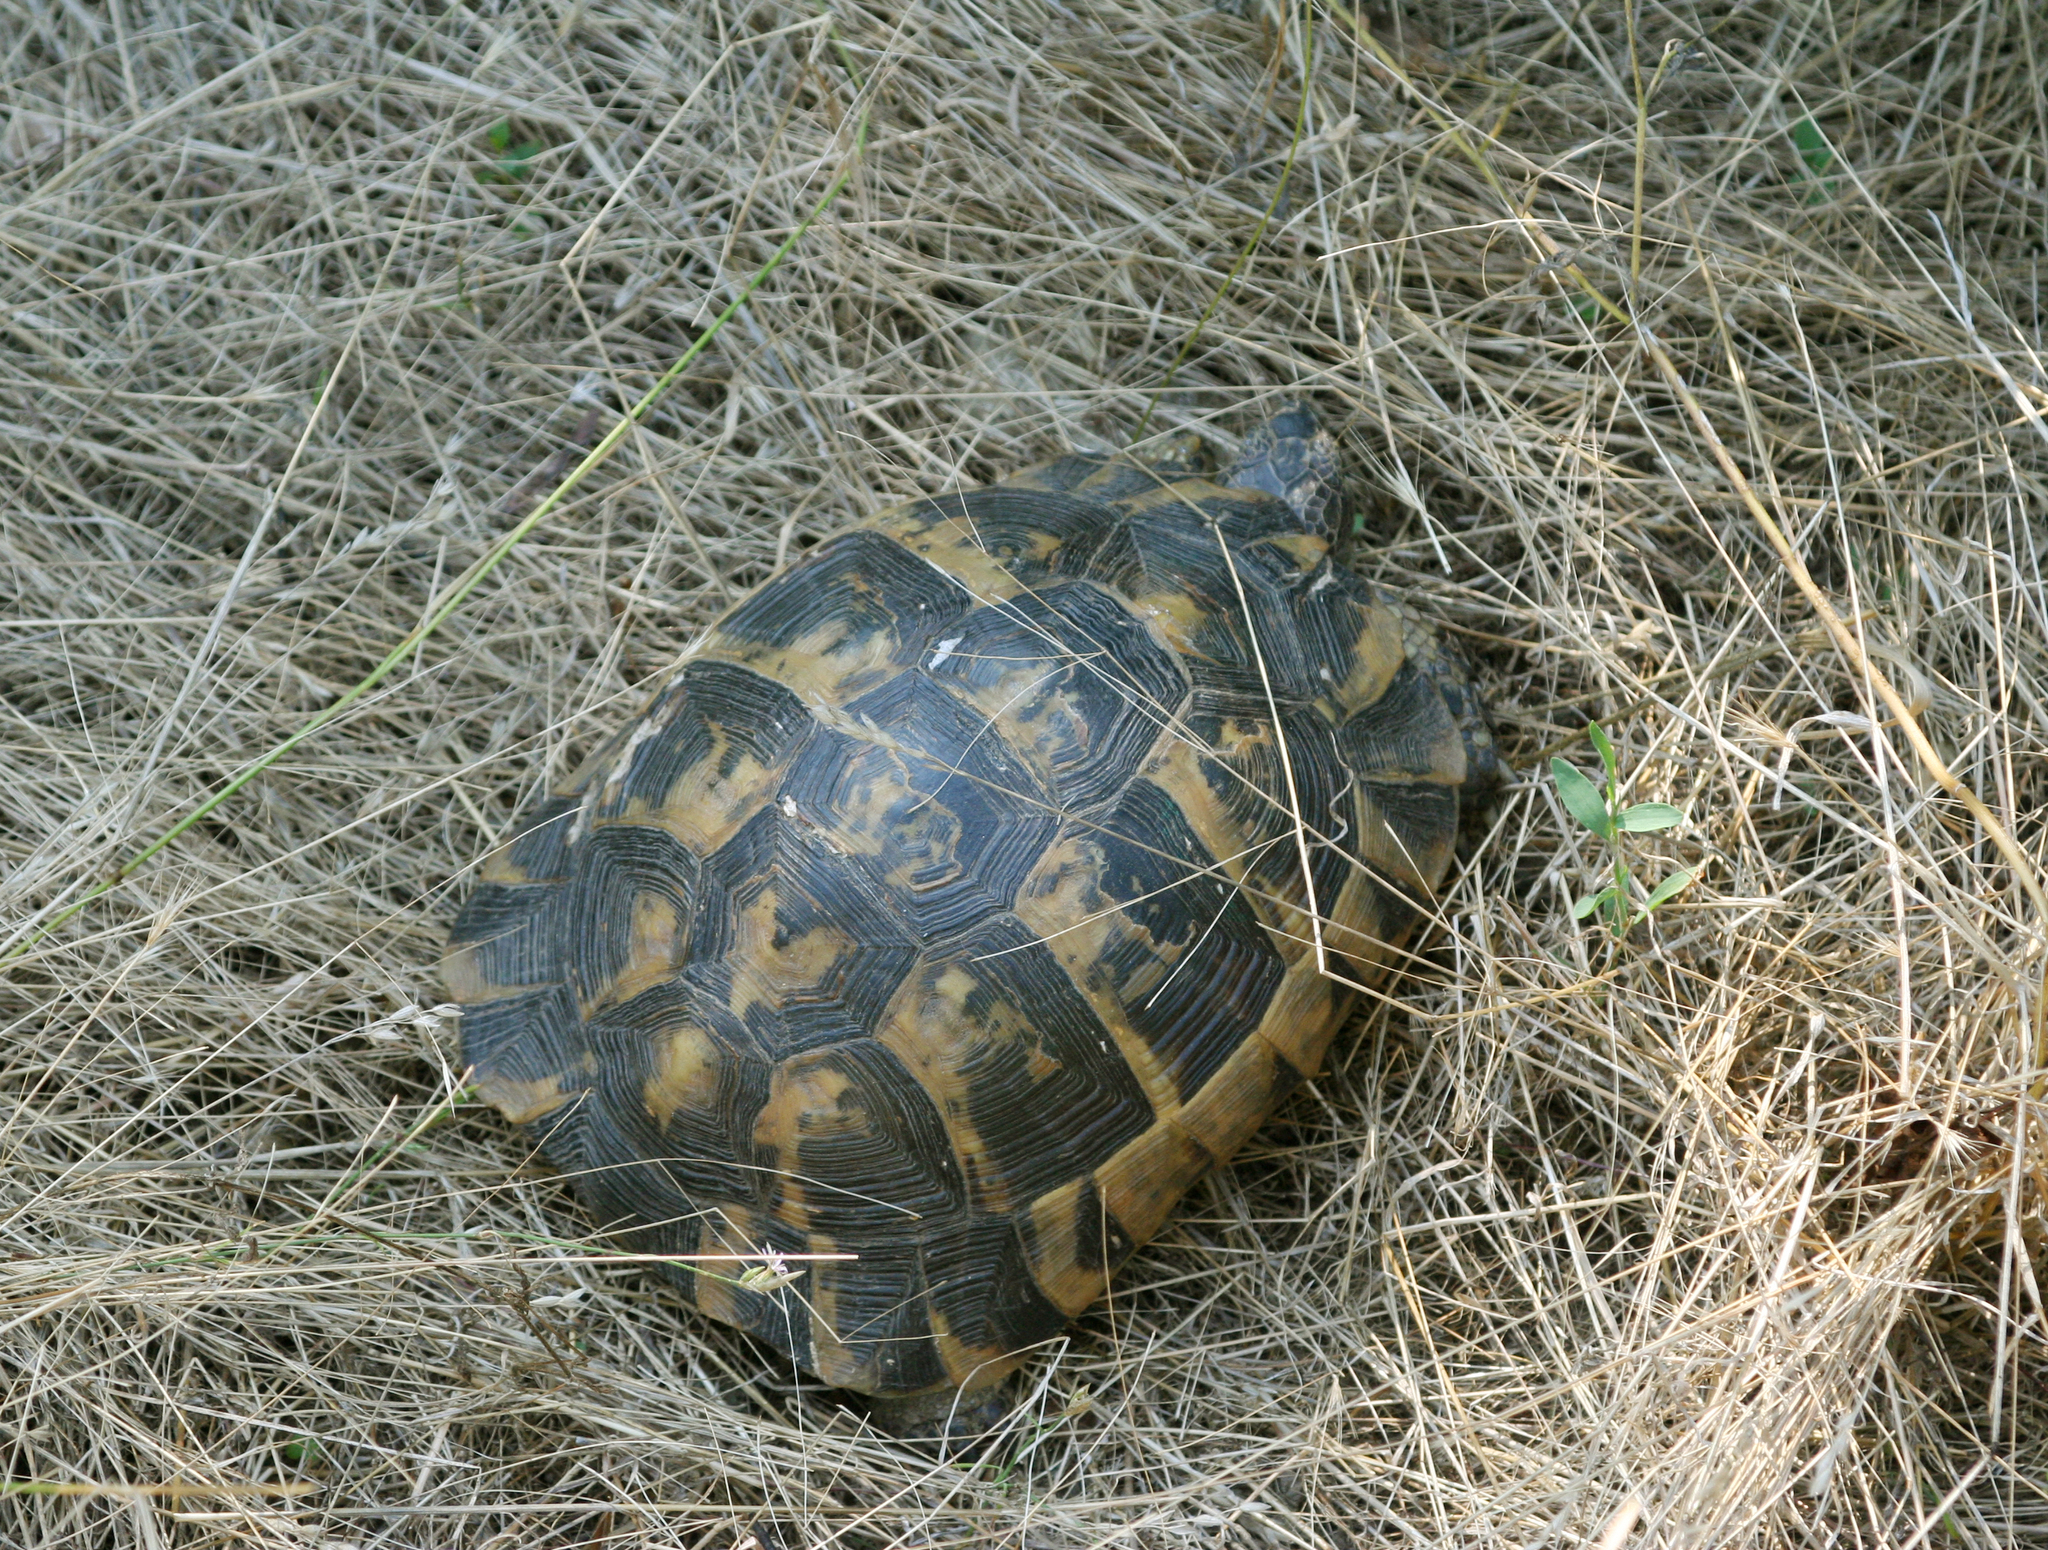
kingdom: Animalia
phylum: Chordata
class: Testudines
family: Testudinidae
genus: Testudo
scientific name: Testudo graeca
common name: Common tortoise
